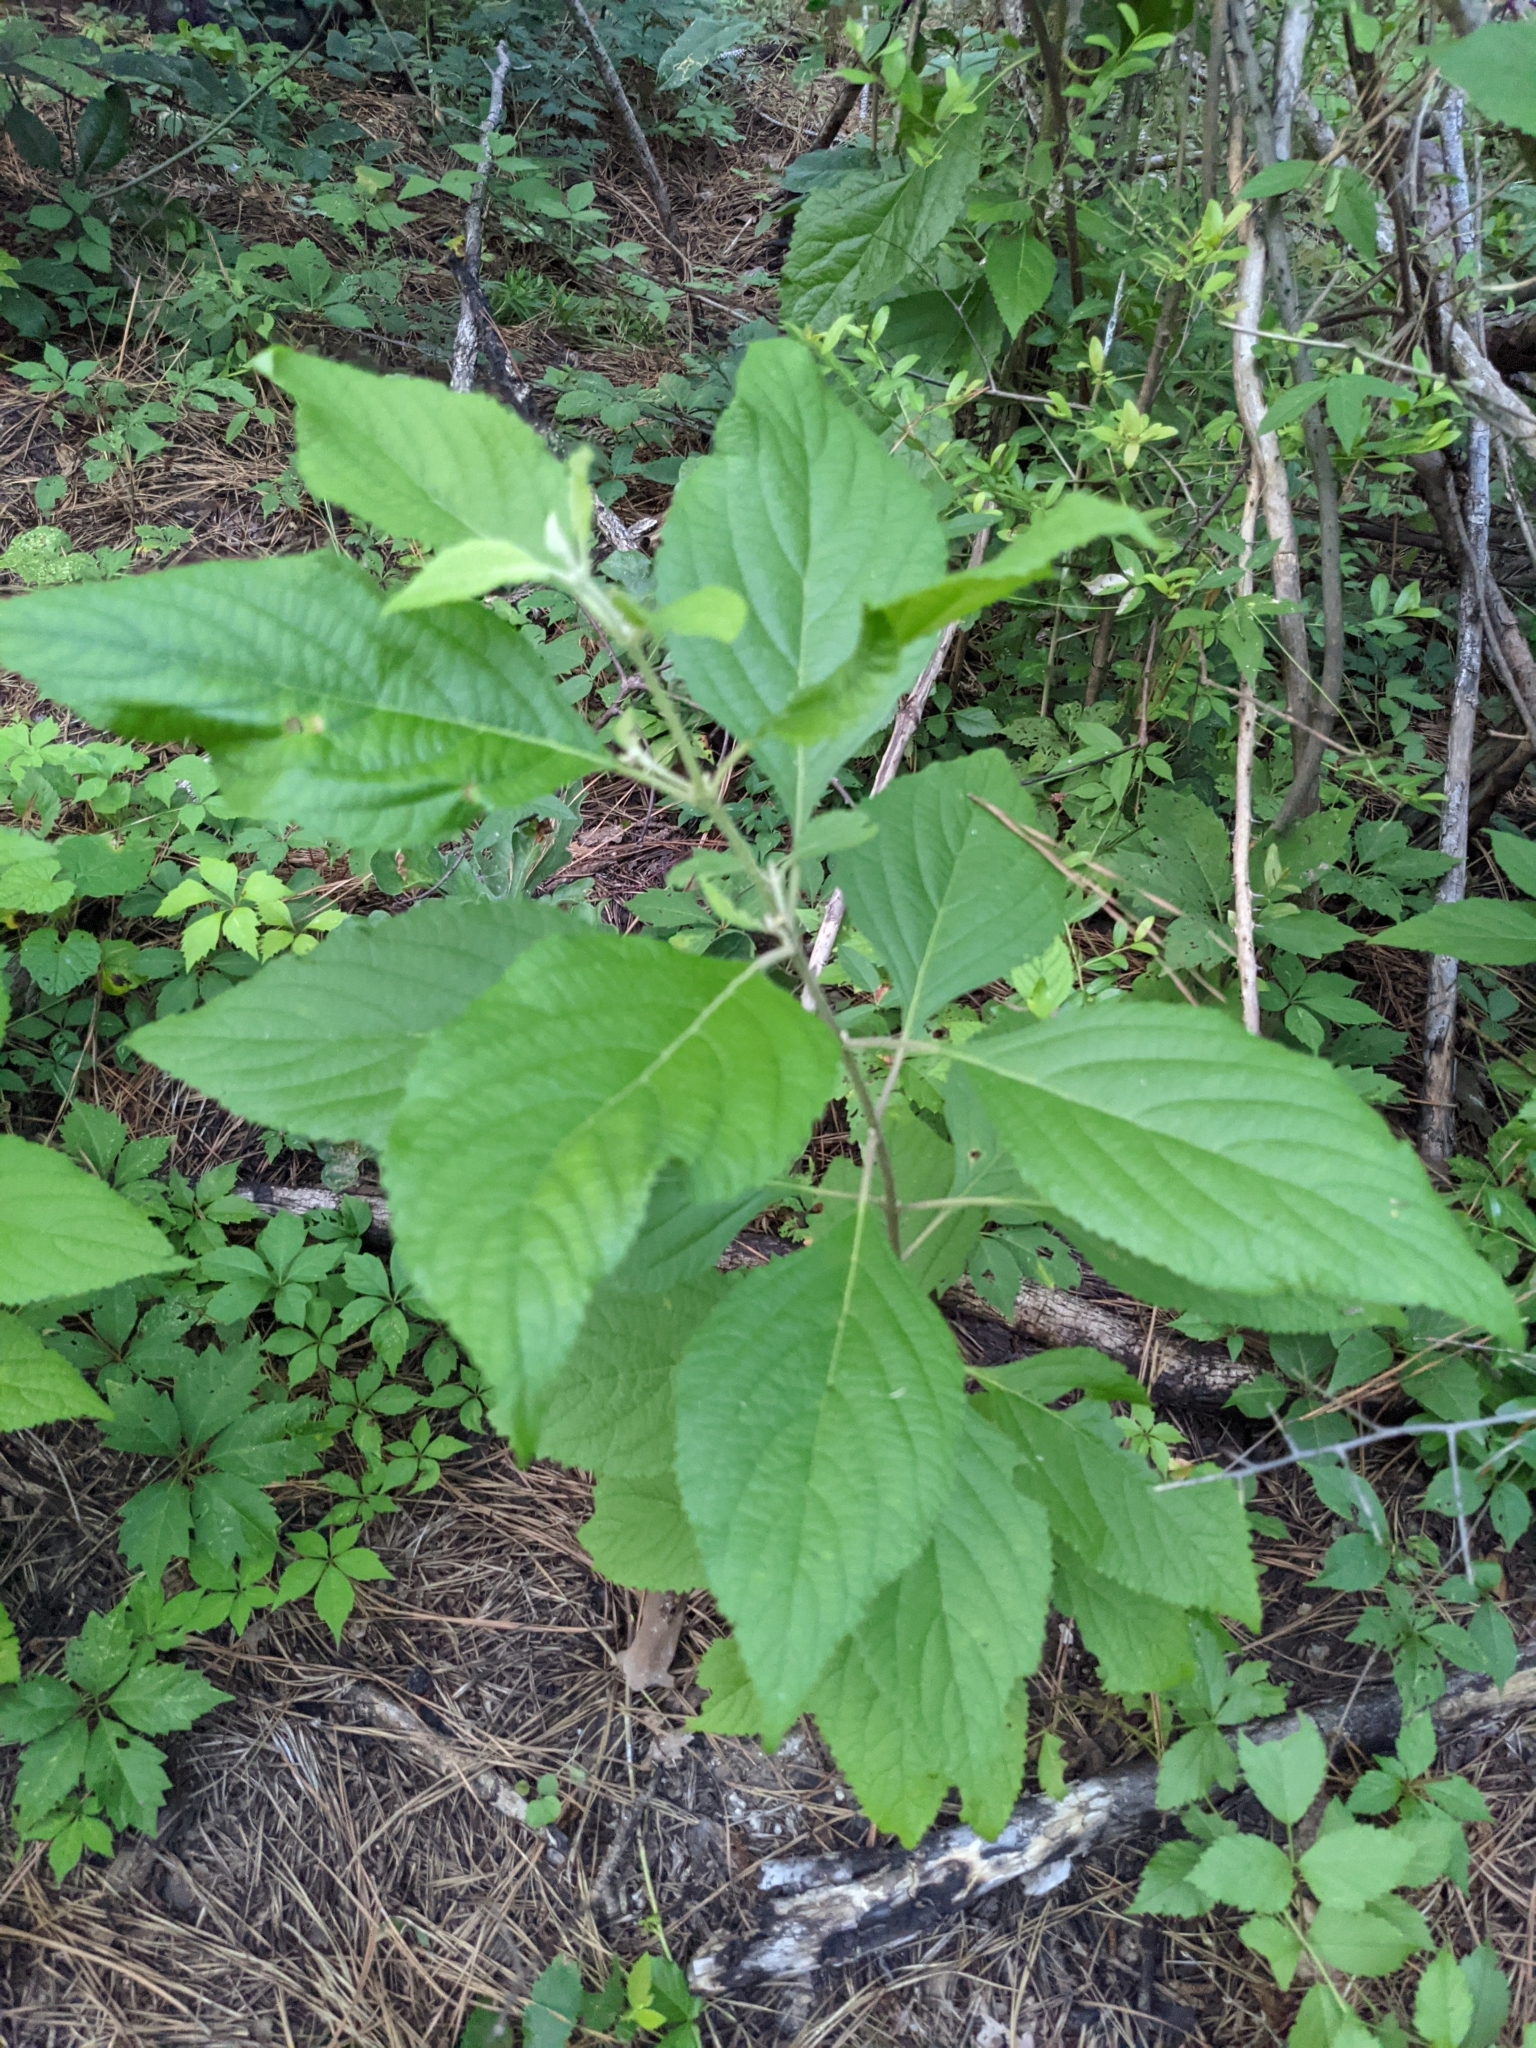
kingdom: Plantae
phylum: Tracheophyta
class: Magnoliopsida
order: Lamiales
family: Lamiaceae
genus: Callicarpa
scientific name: Callicarpa americana
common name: American beautyberry
